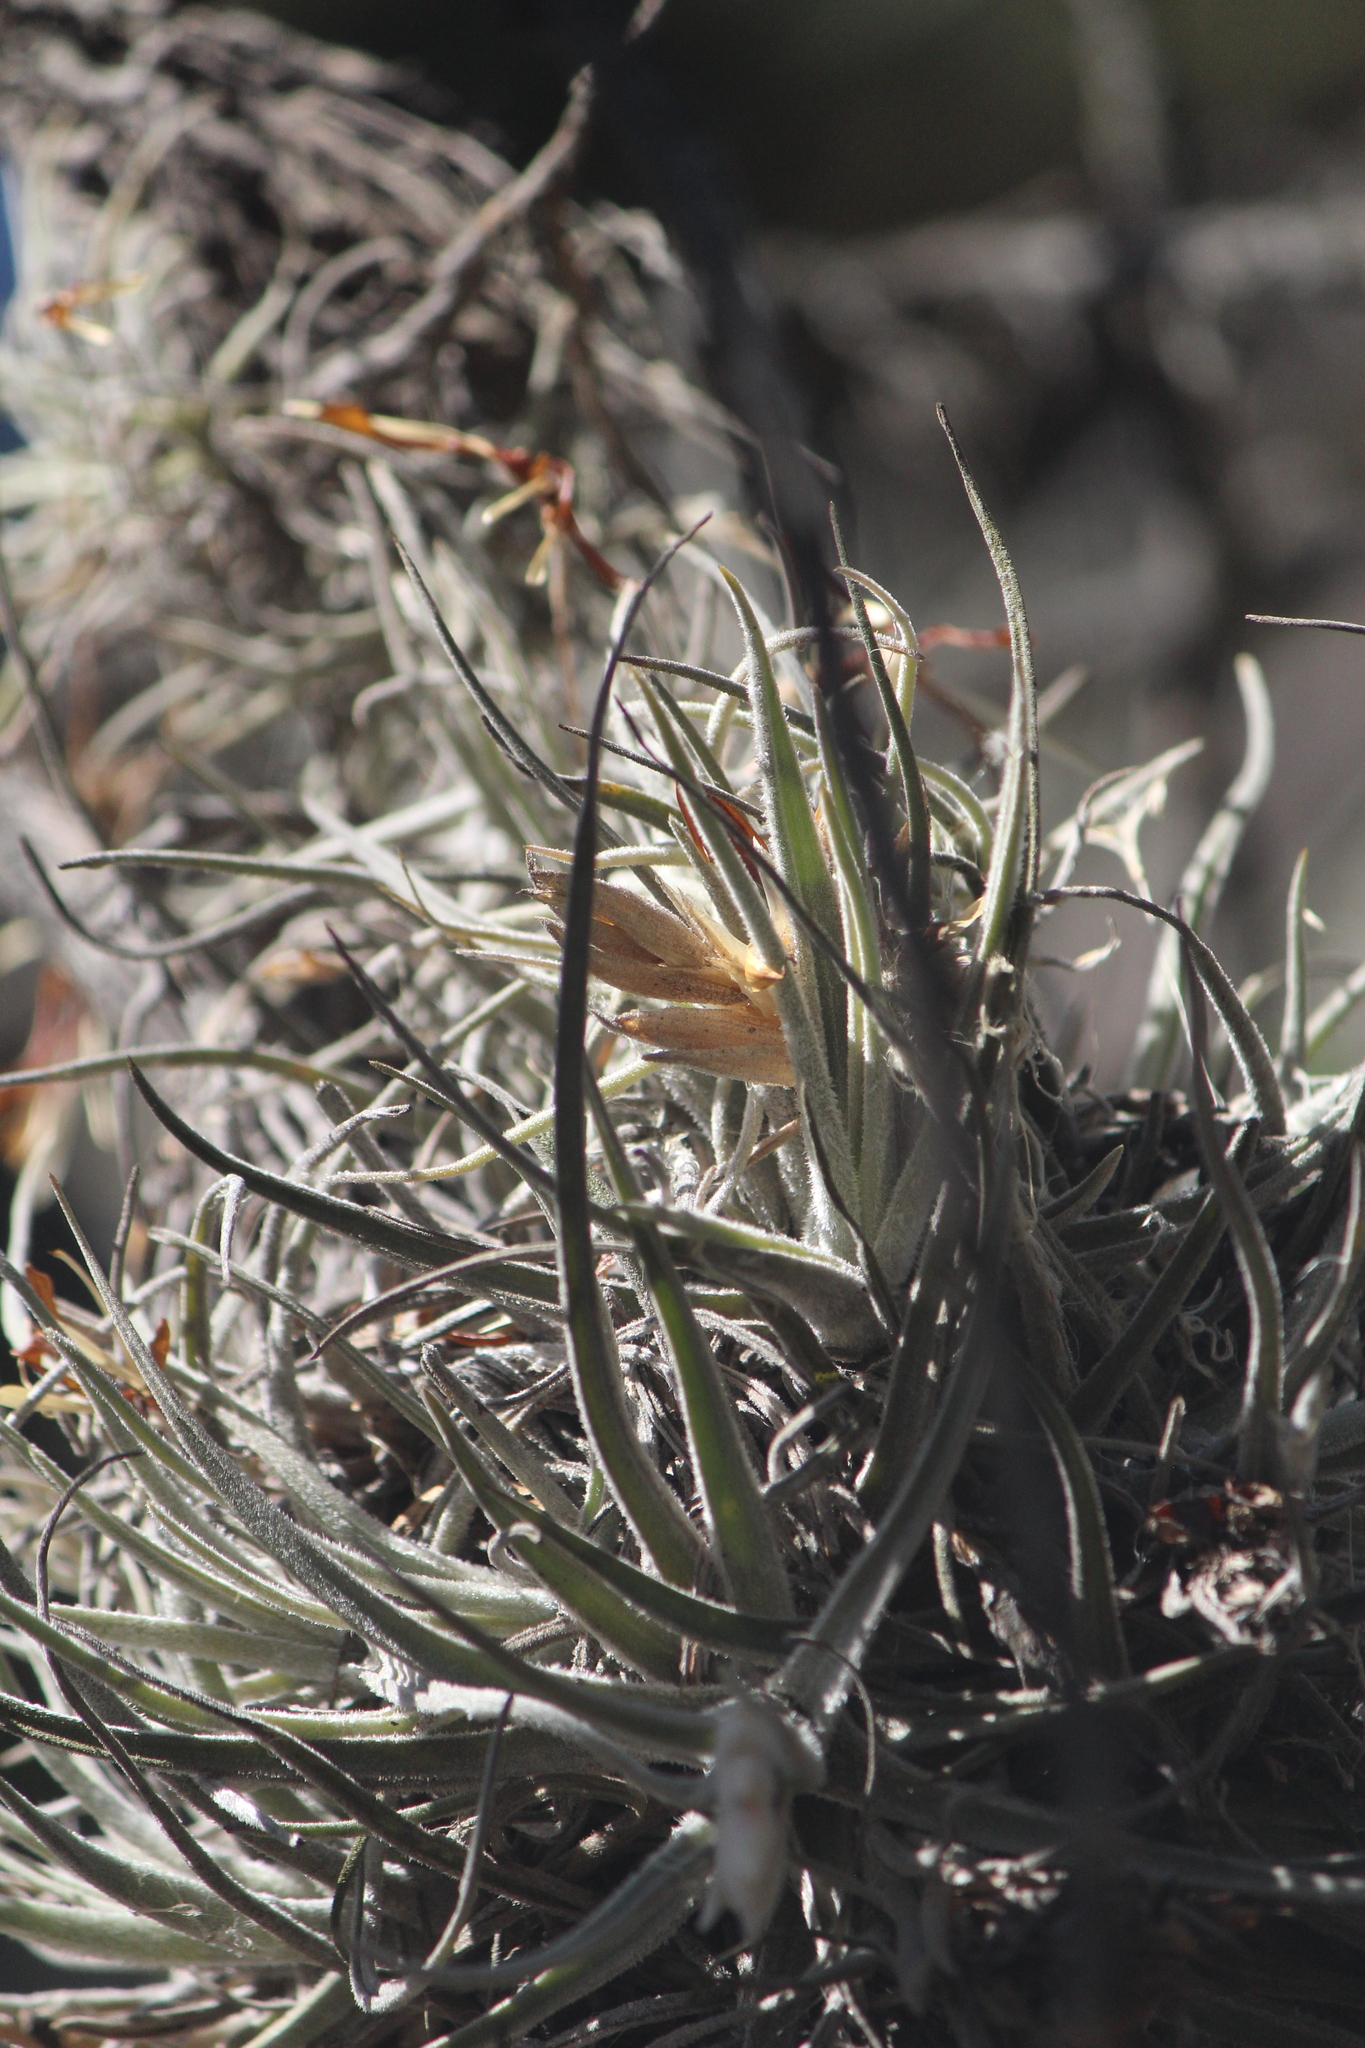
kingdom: Plantae
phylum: Tracheophyta
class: Liliopsida
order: Poales
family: Bromeliaceae
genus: Tillandsia
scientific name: Tillandsia lepidosepala
